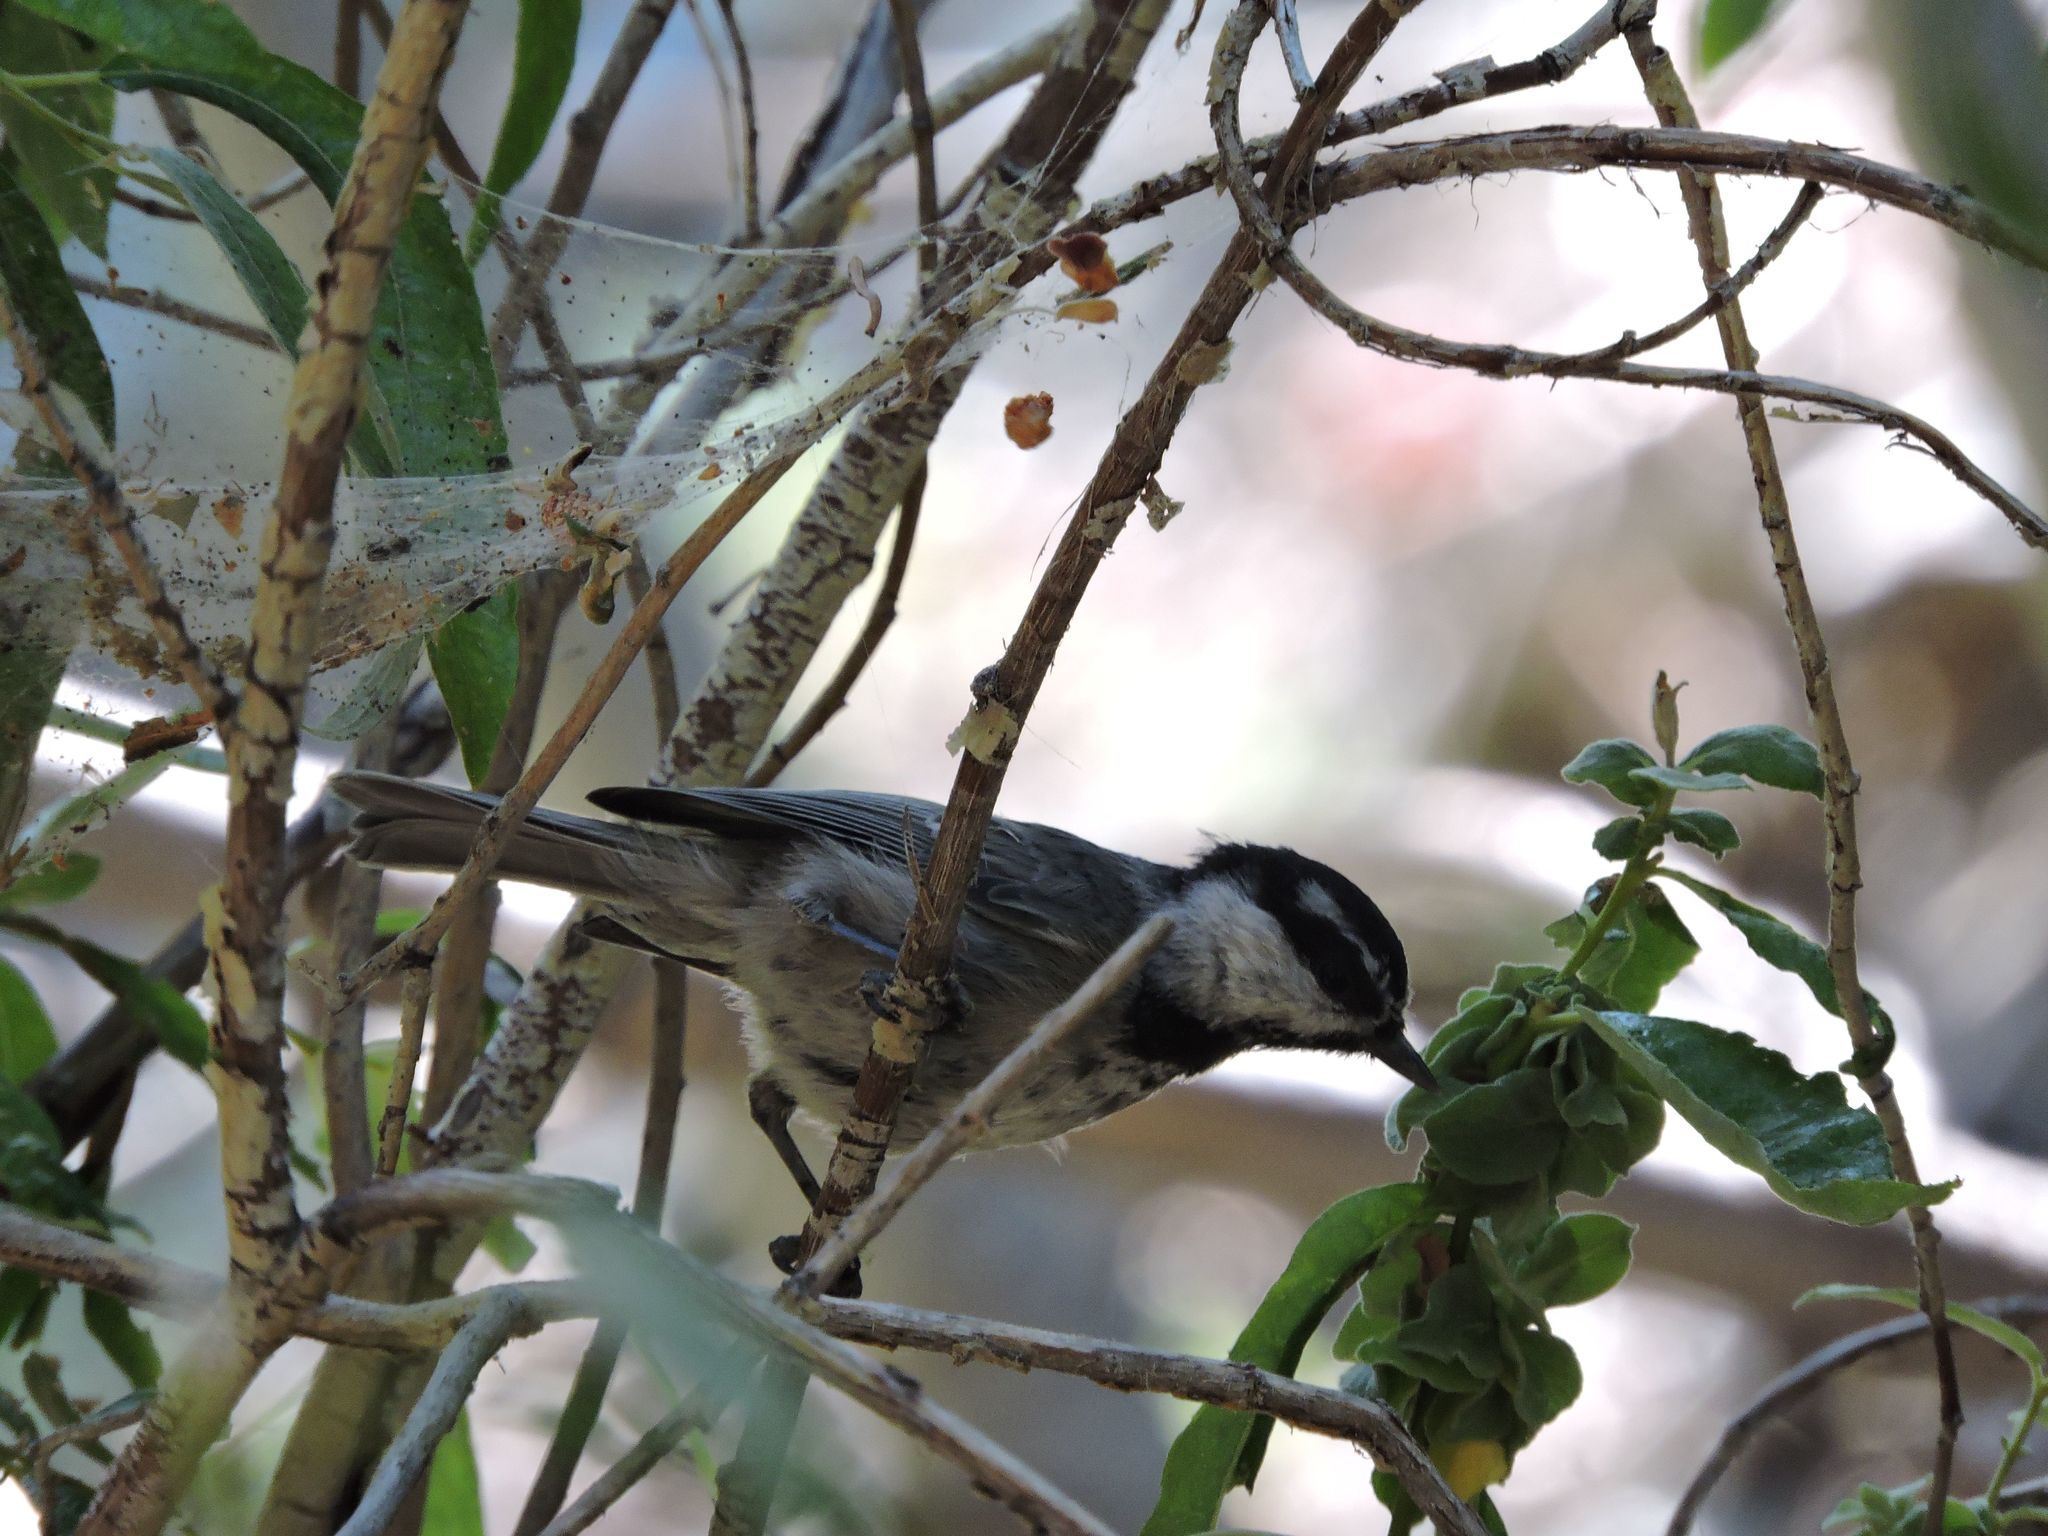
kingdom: Animalia
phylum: Chordata
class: Aves
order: Passeriformes
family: Paridae
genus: Poecile
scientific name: Poecile gambeli
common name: Mountain chickadee
